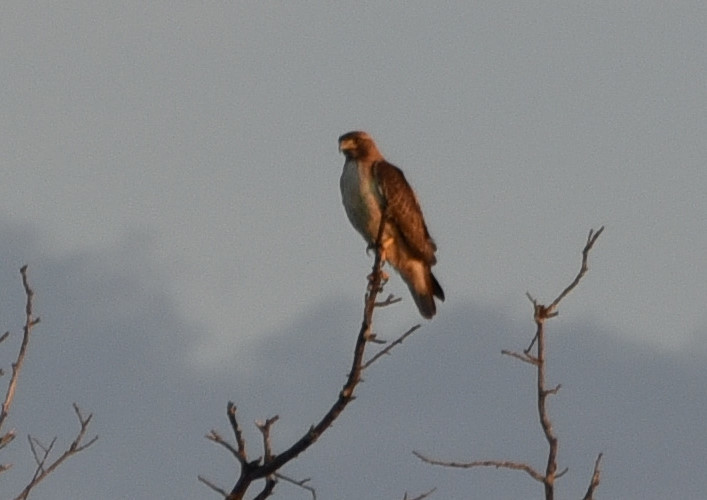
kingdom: Animalia
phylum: Chordata
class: Aves
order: Accipitriformes
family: Accipitridae
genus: Buteo
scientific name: Buteo jamaicensis
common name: Red-tailed hawk
